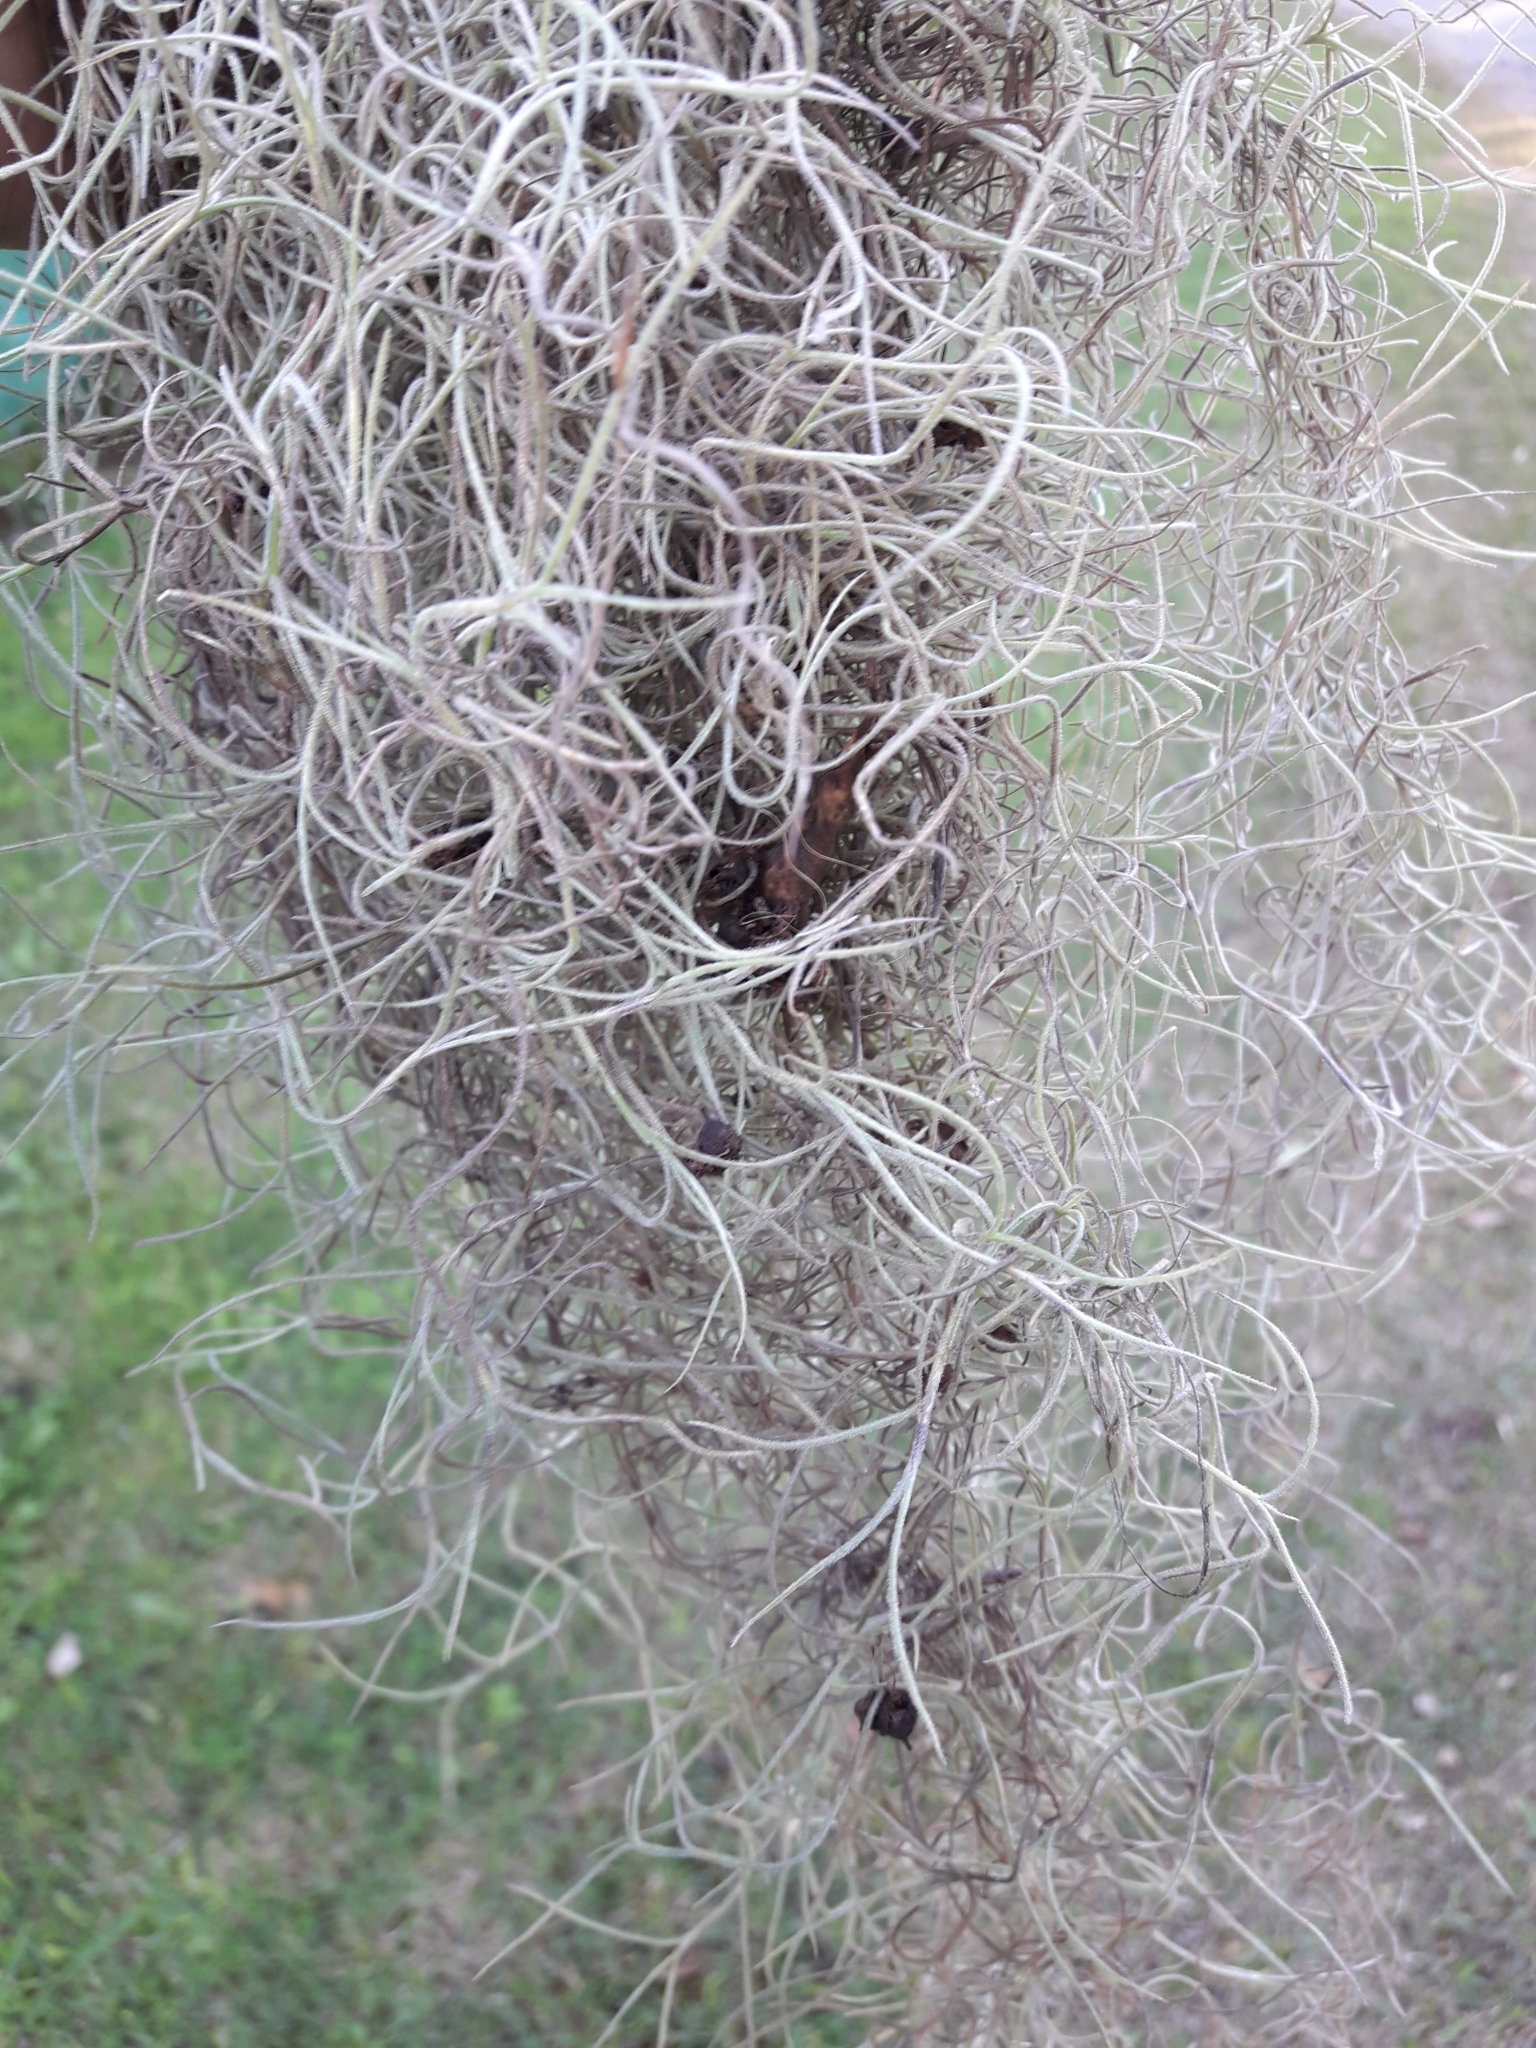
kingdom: Plantae
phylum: Tracheophyta
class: Liliopsida
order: Poales
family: Bromeliaceae
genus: Tillandsia
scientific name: Tillandsia usneoides
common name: Spanish moss
